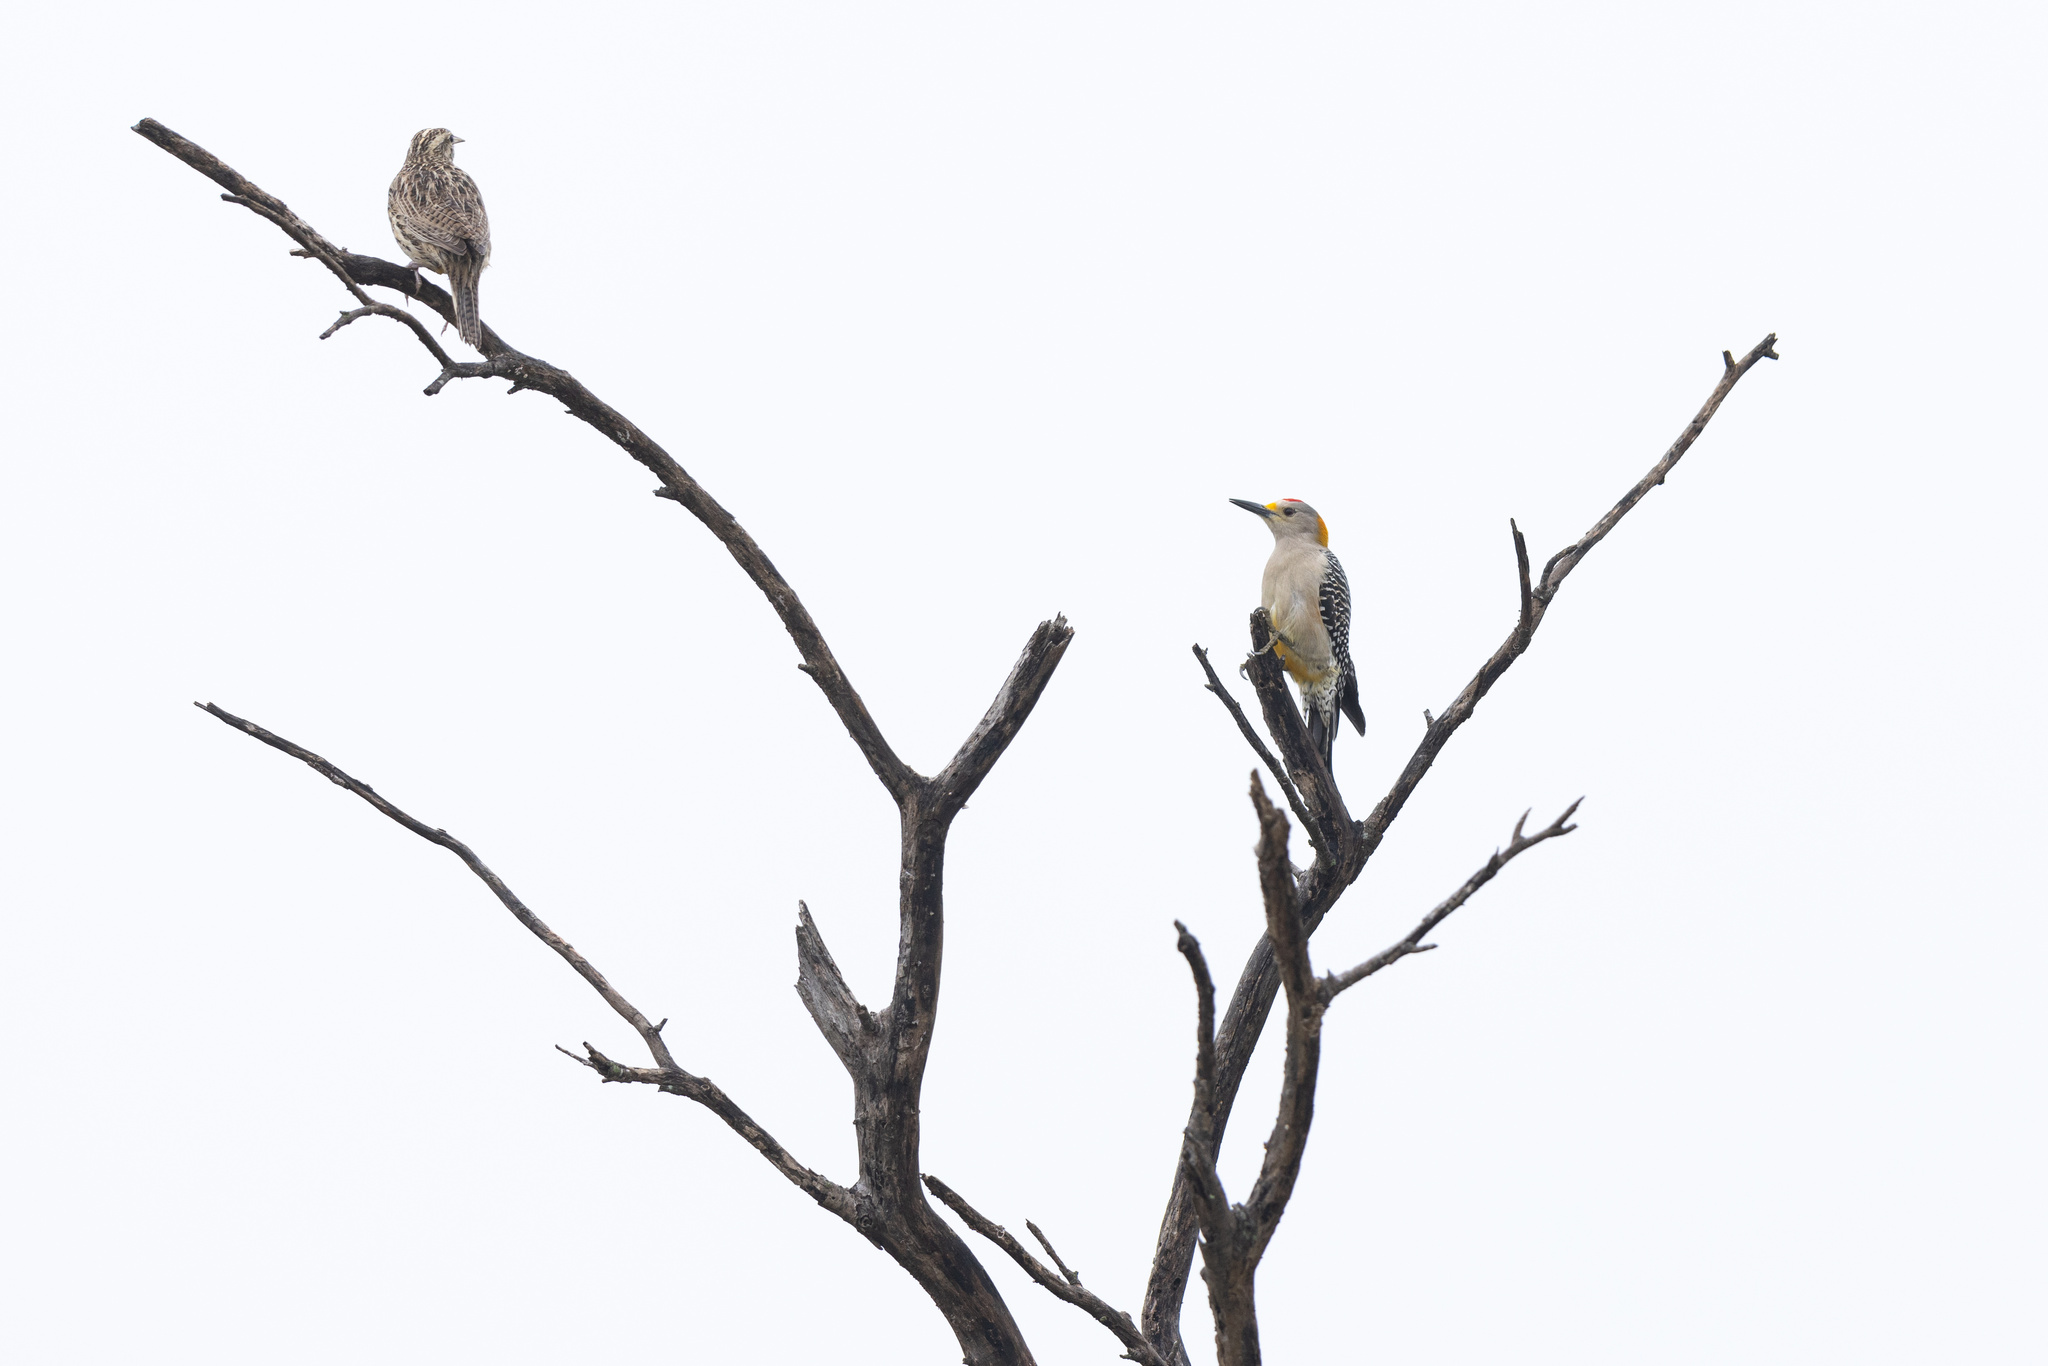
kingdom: Animalia
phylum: Chordata
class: Aves
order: Piciformes
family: Picidae
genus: Melanerpes
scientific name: Melanerpes aurifrons
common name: Golden-fronted woodpecker
